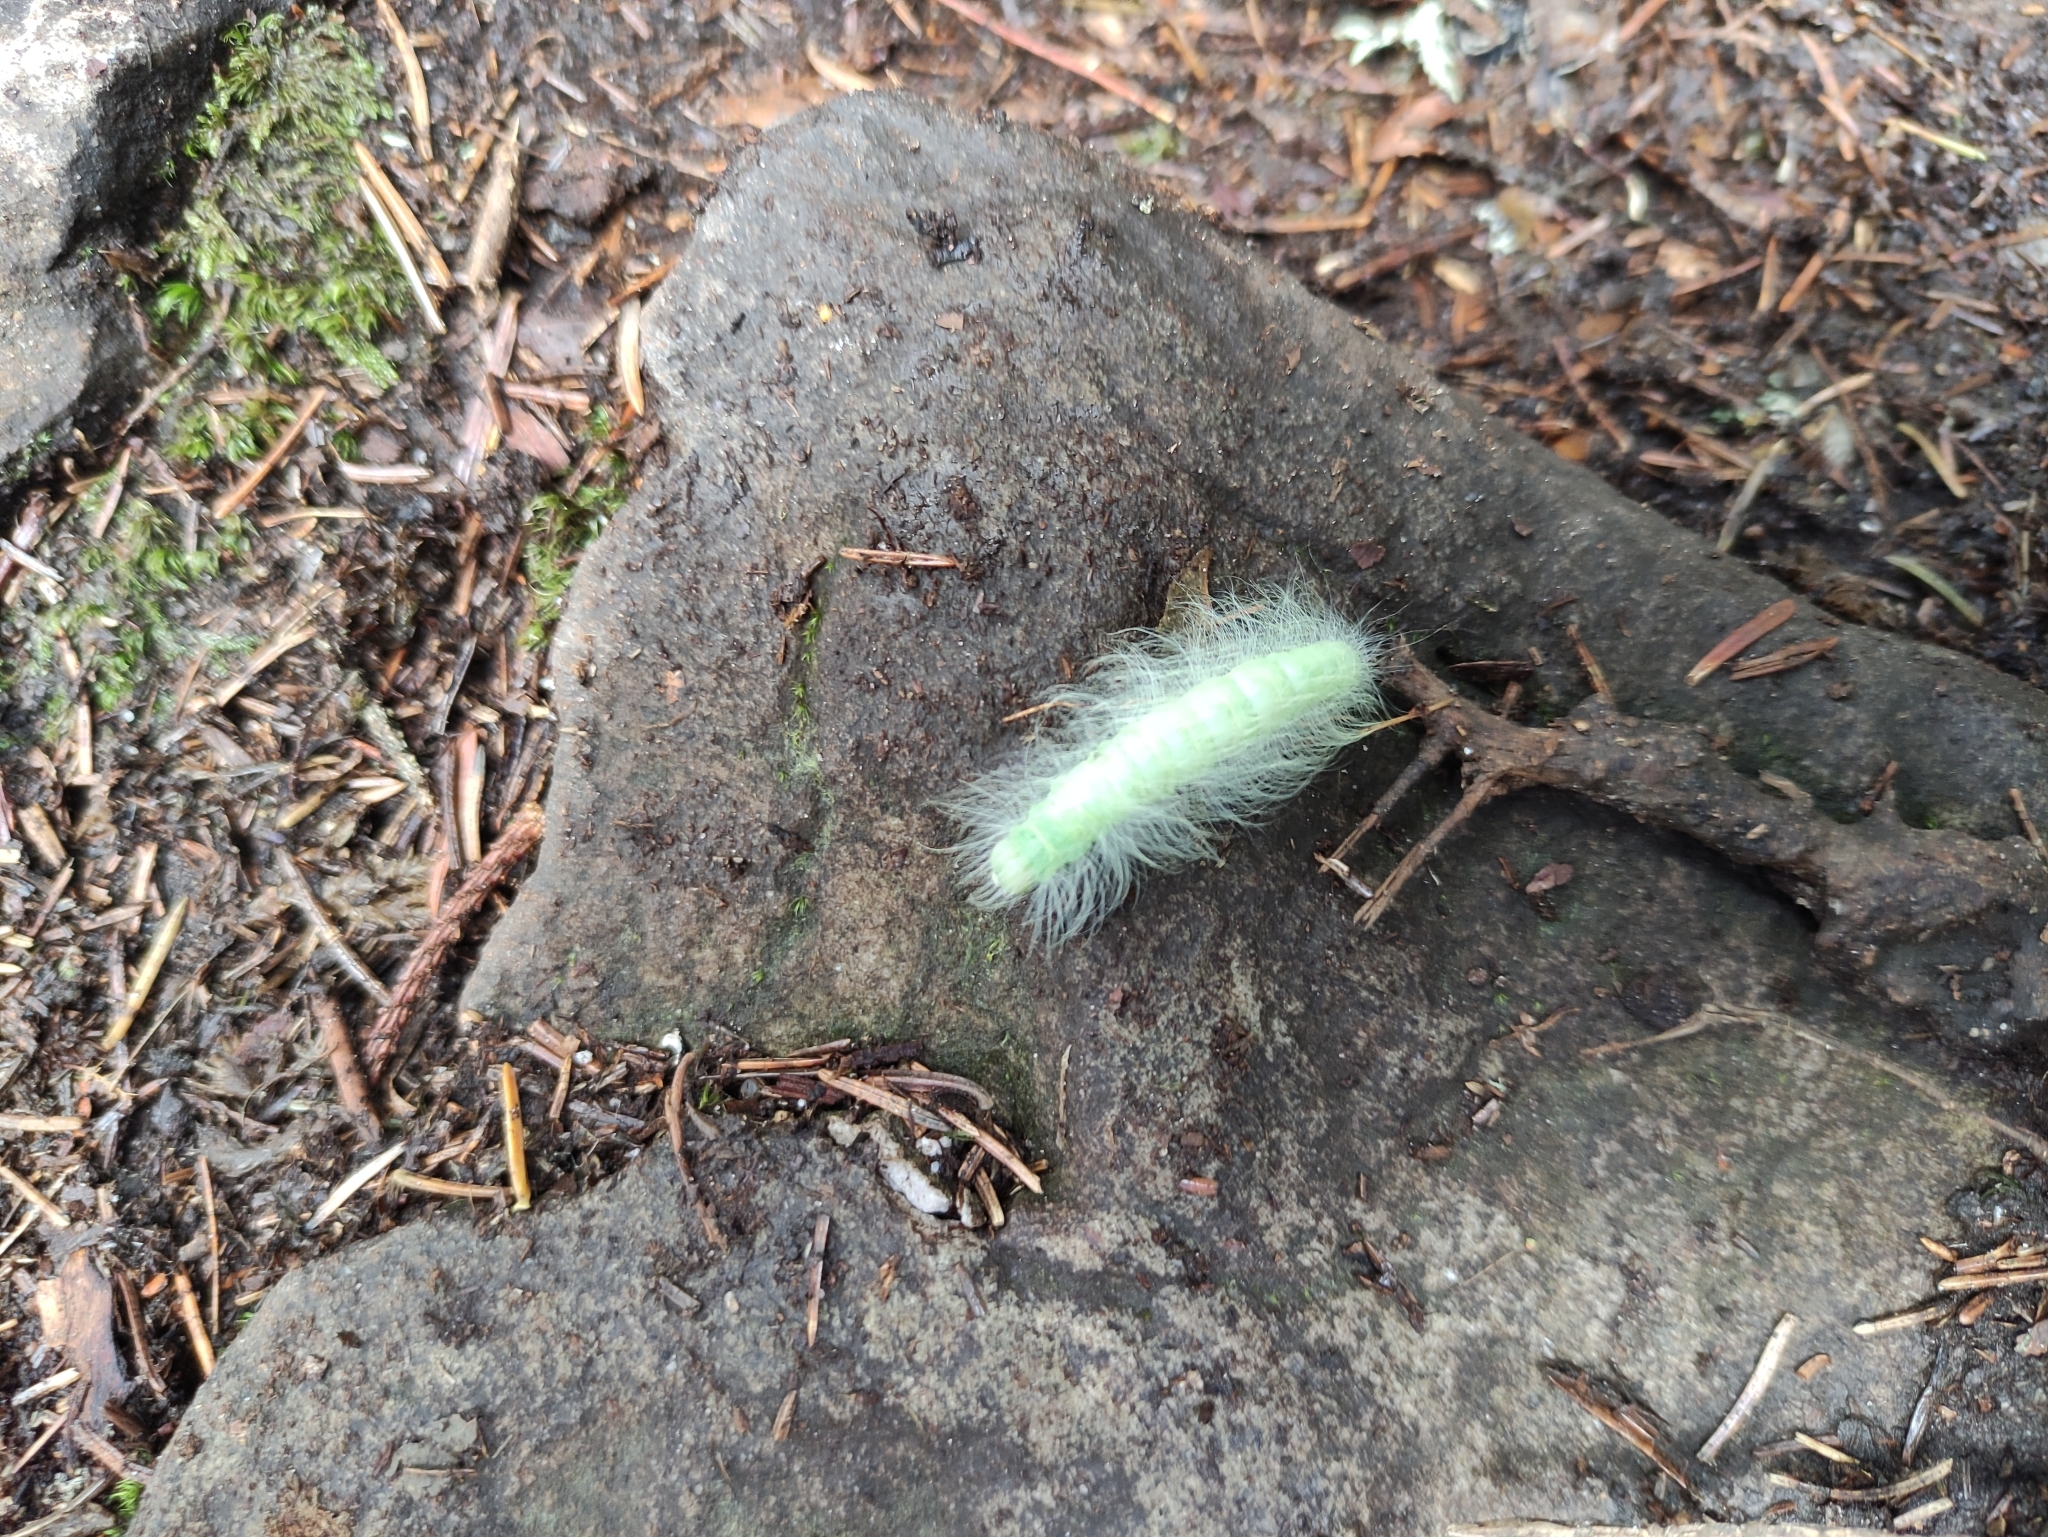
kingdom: Animalia
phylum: Arthropoda
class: Insecta
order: Lepidoptera
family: Noctuidae
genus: Acronicta
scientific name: Acronicta leporina
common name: Miller
